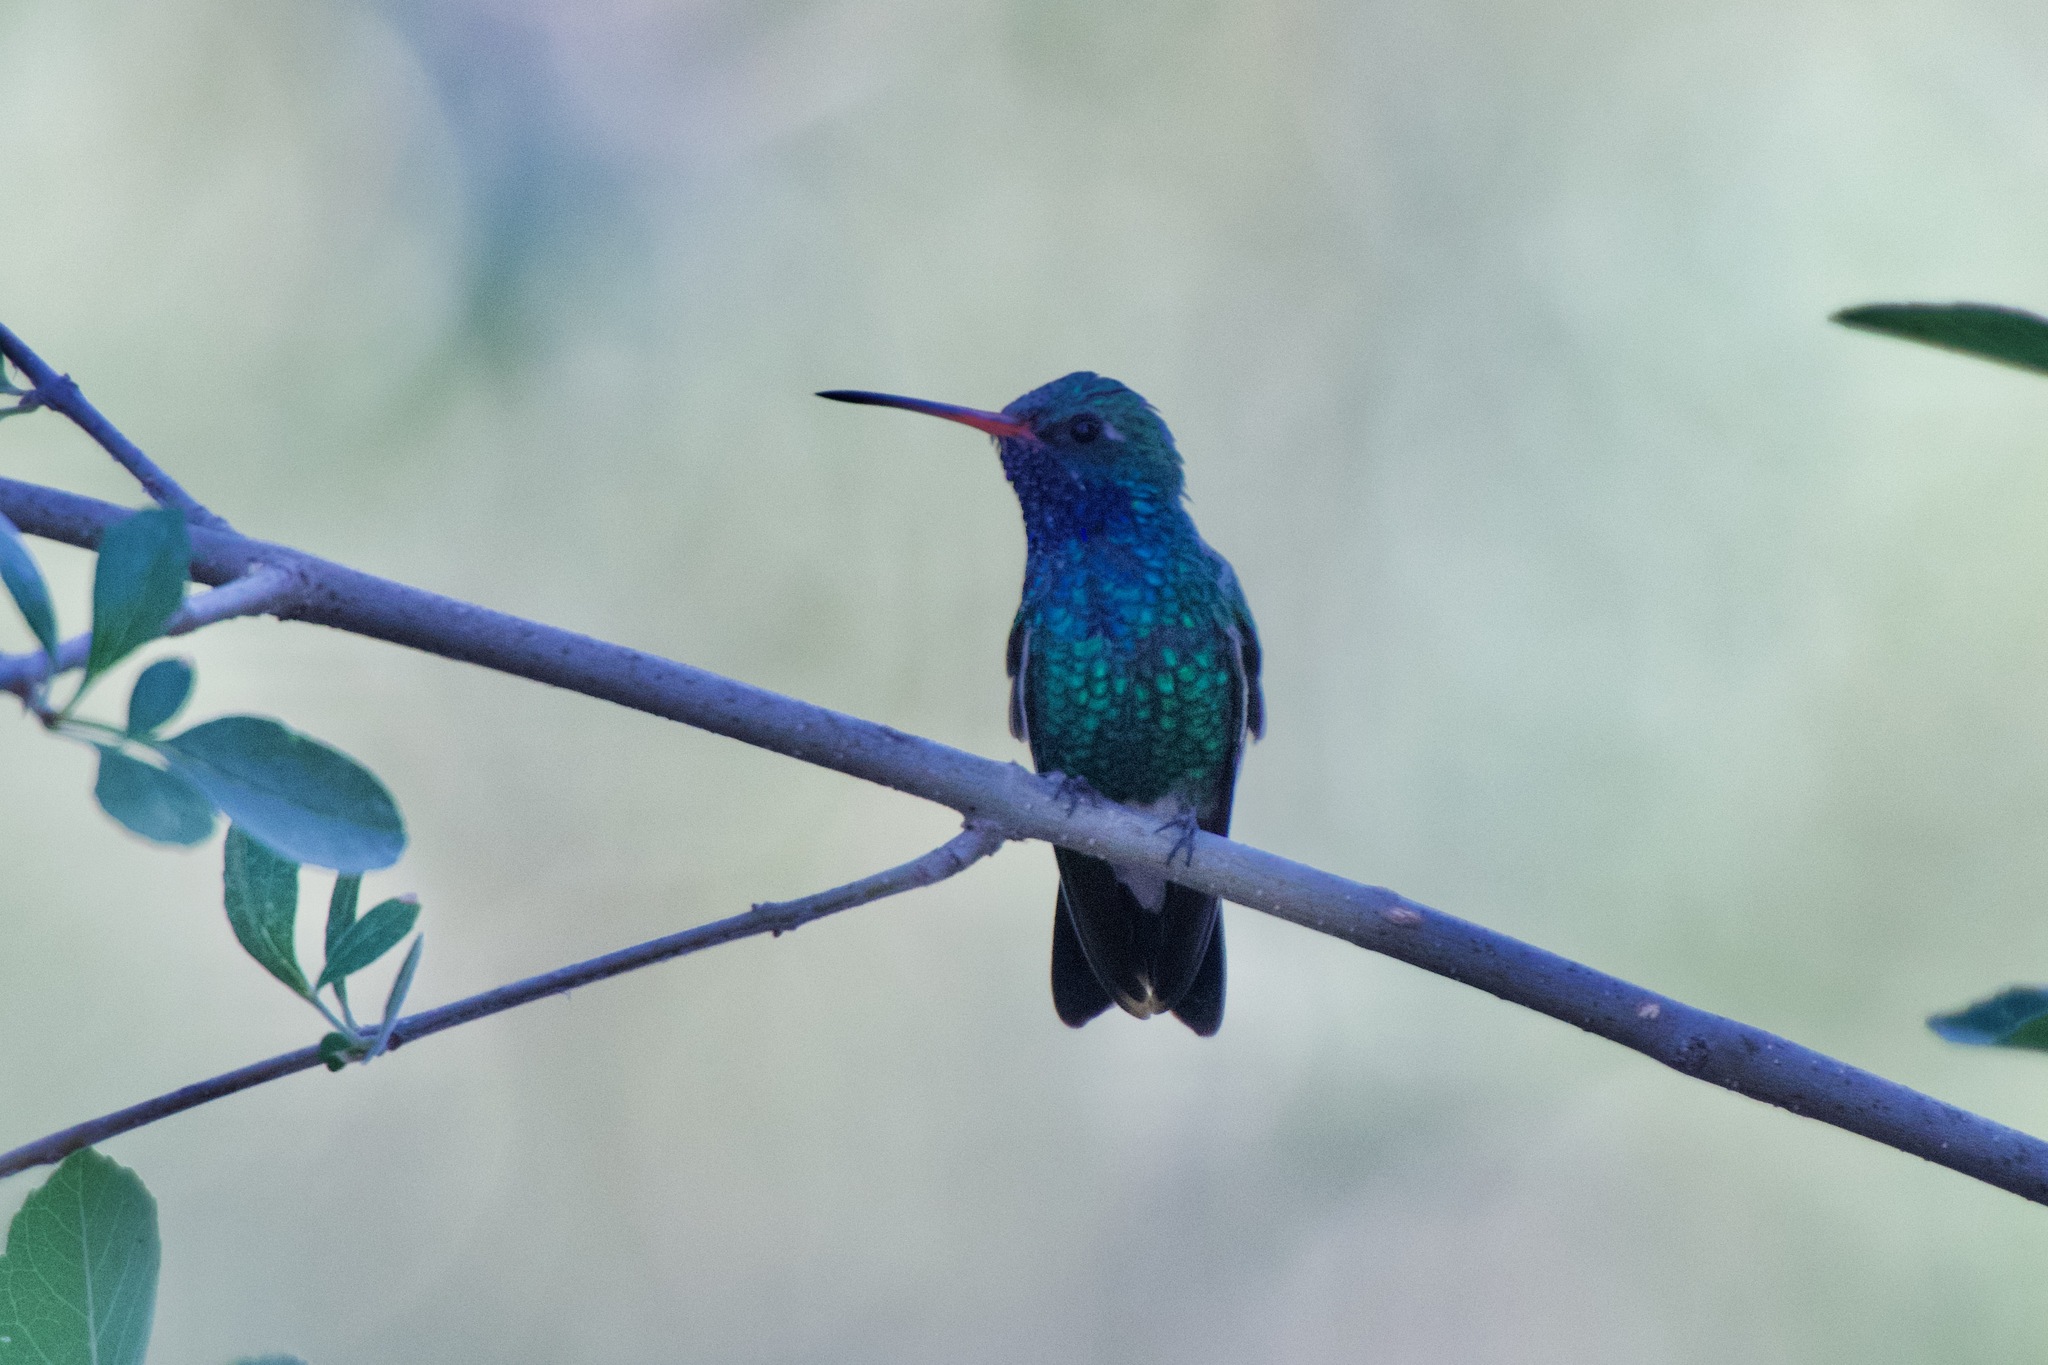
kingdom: Animalia
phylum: Chordata
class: Aves
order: Apodiformes
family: Trochilidae
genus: Cynanthus
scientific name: Cynanthus latirostris
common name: Broad-billed hummingbird
